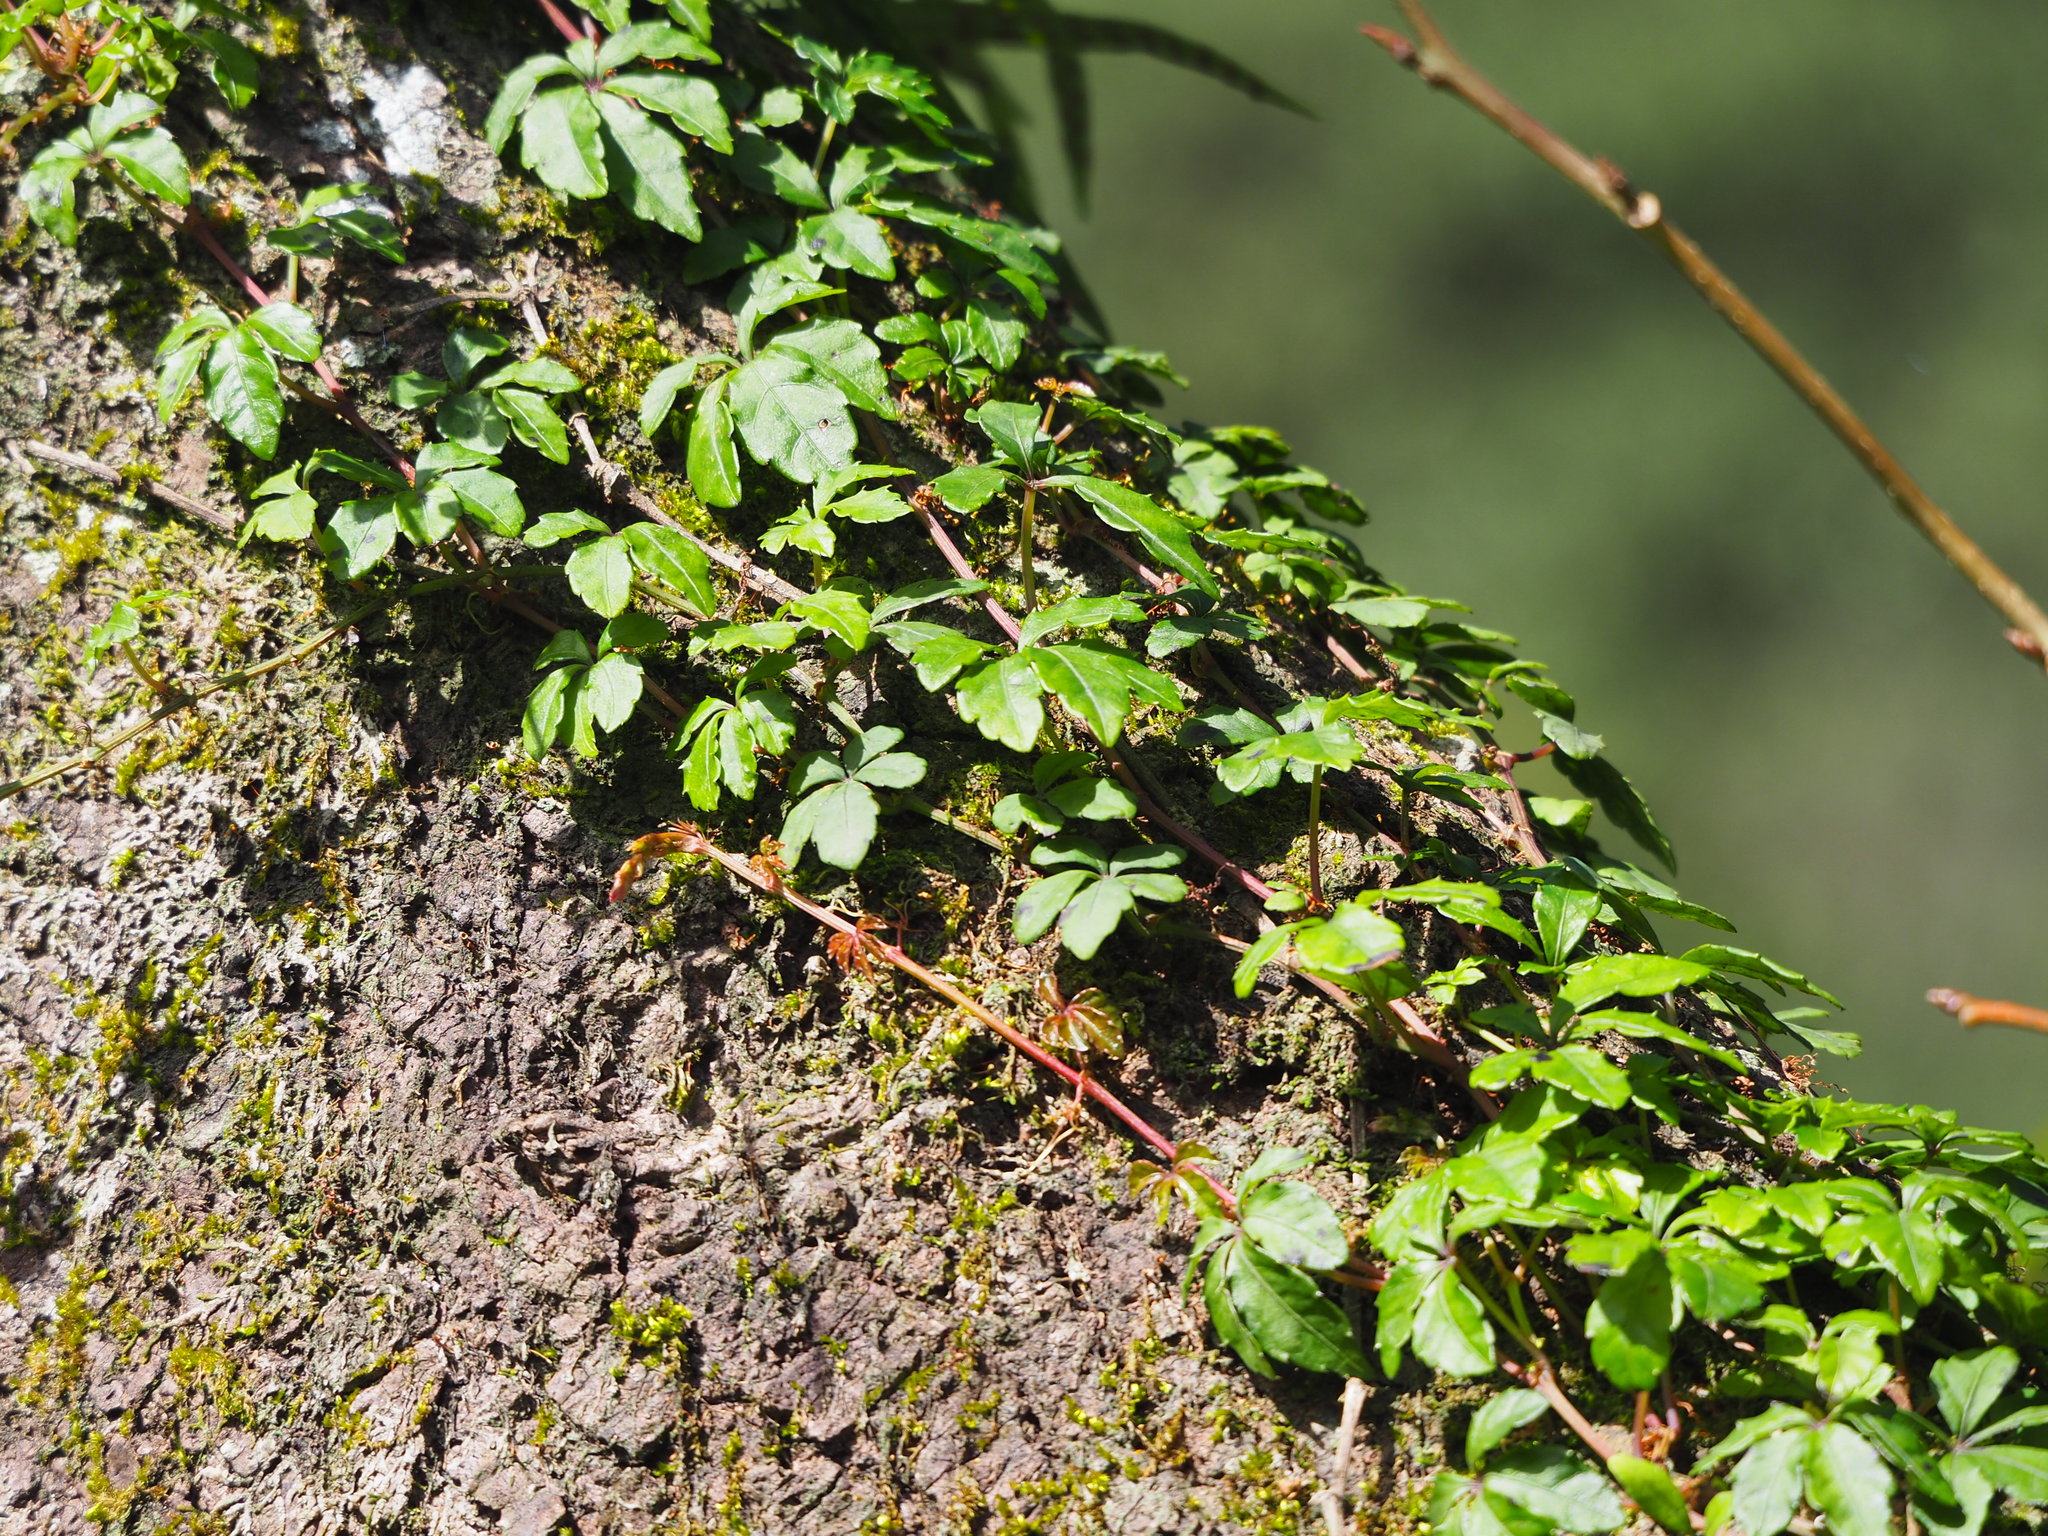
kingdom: Plantae
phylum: Tracheophyta
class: Magnoliopsida
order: Vitales
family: Vitaceae
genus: Tetrastigma
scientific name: Tetrastigma obtectum
